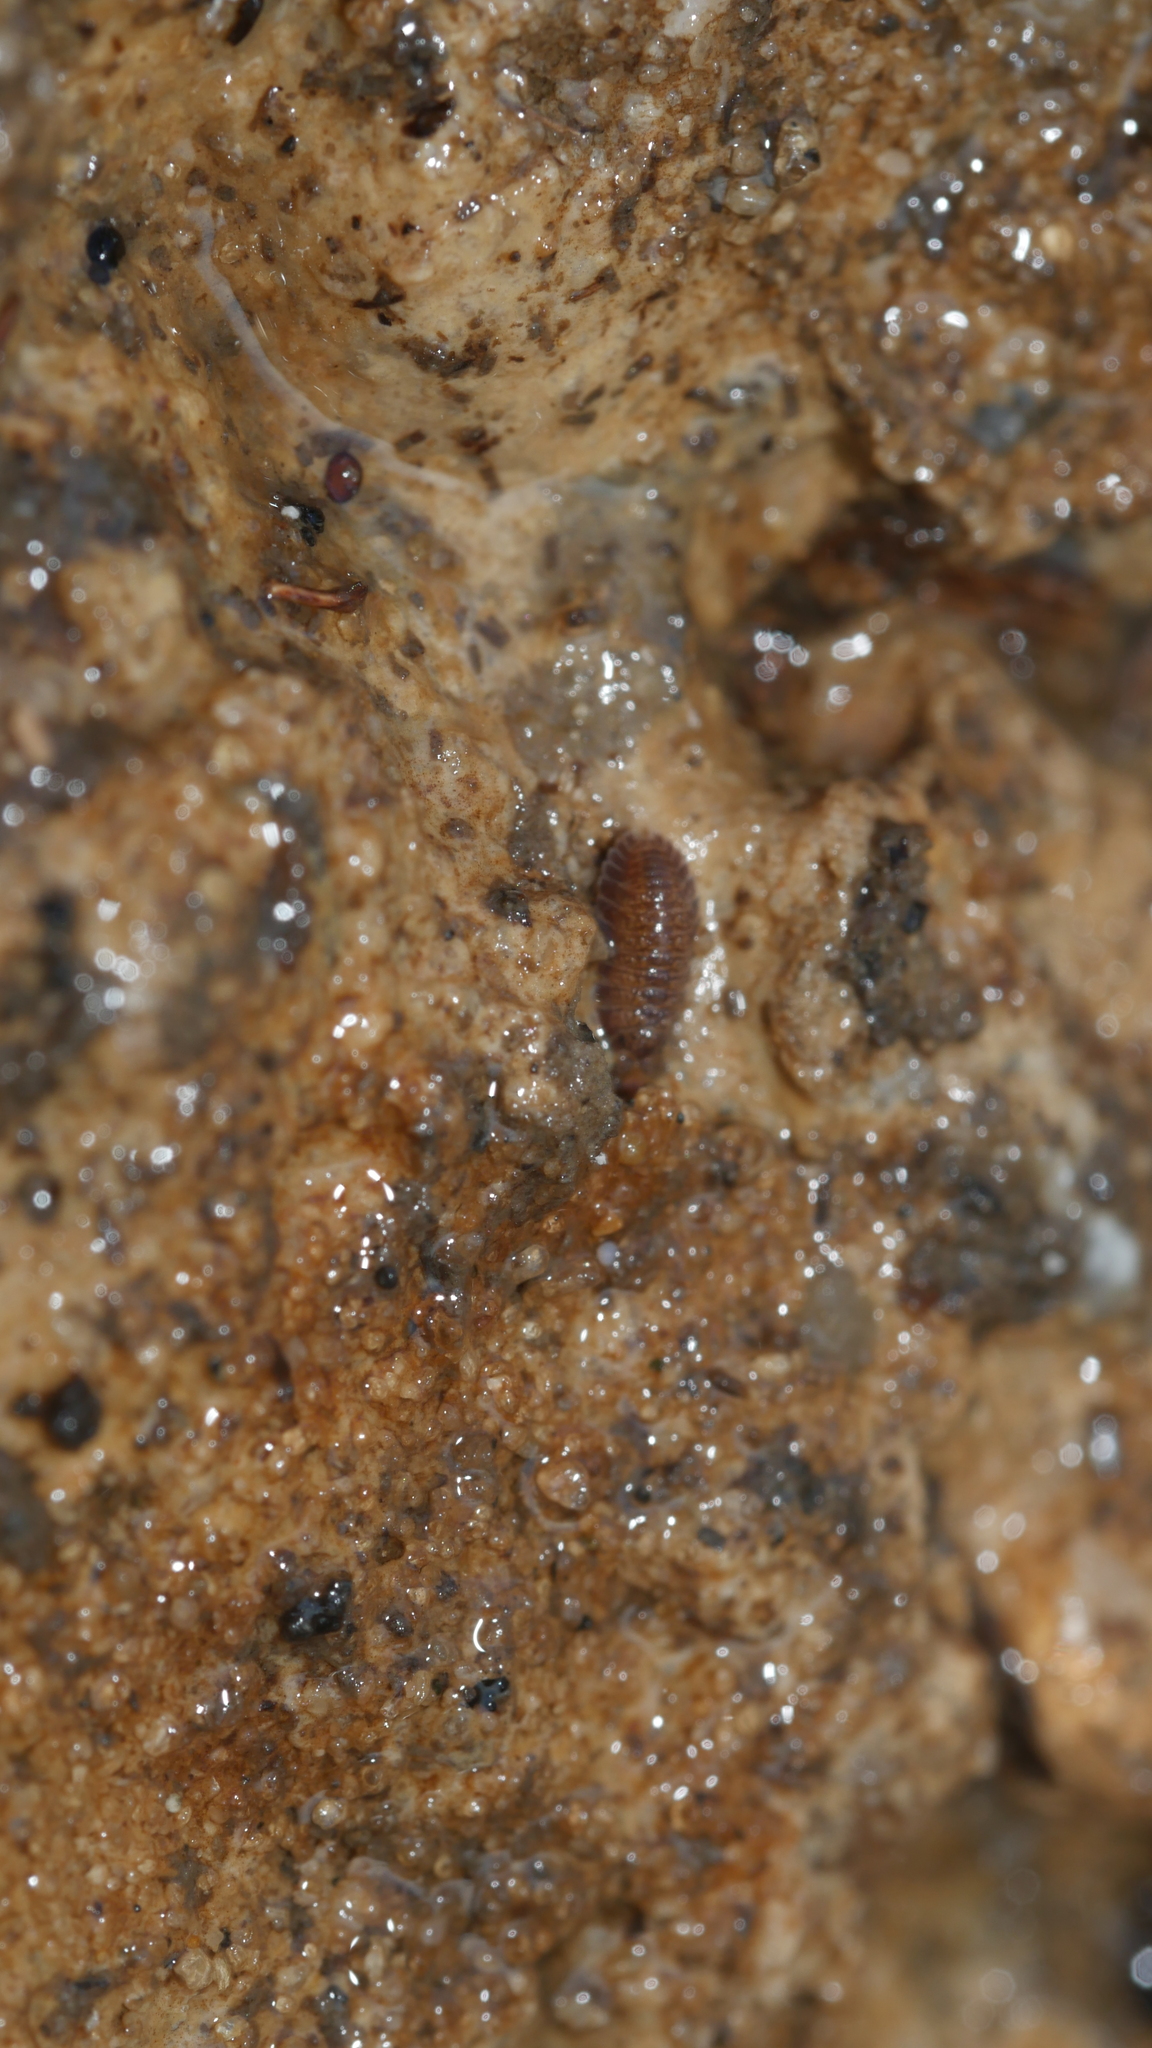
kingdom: Animalia
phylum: Arthropoda
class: Malacostraca
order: Isopoda
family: Detonidae
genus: Armadilloniscus
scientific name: Armadilloniscus ellipticus
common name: Pillbug
